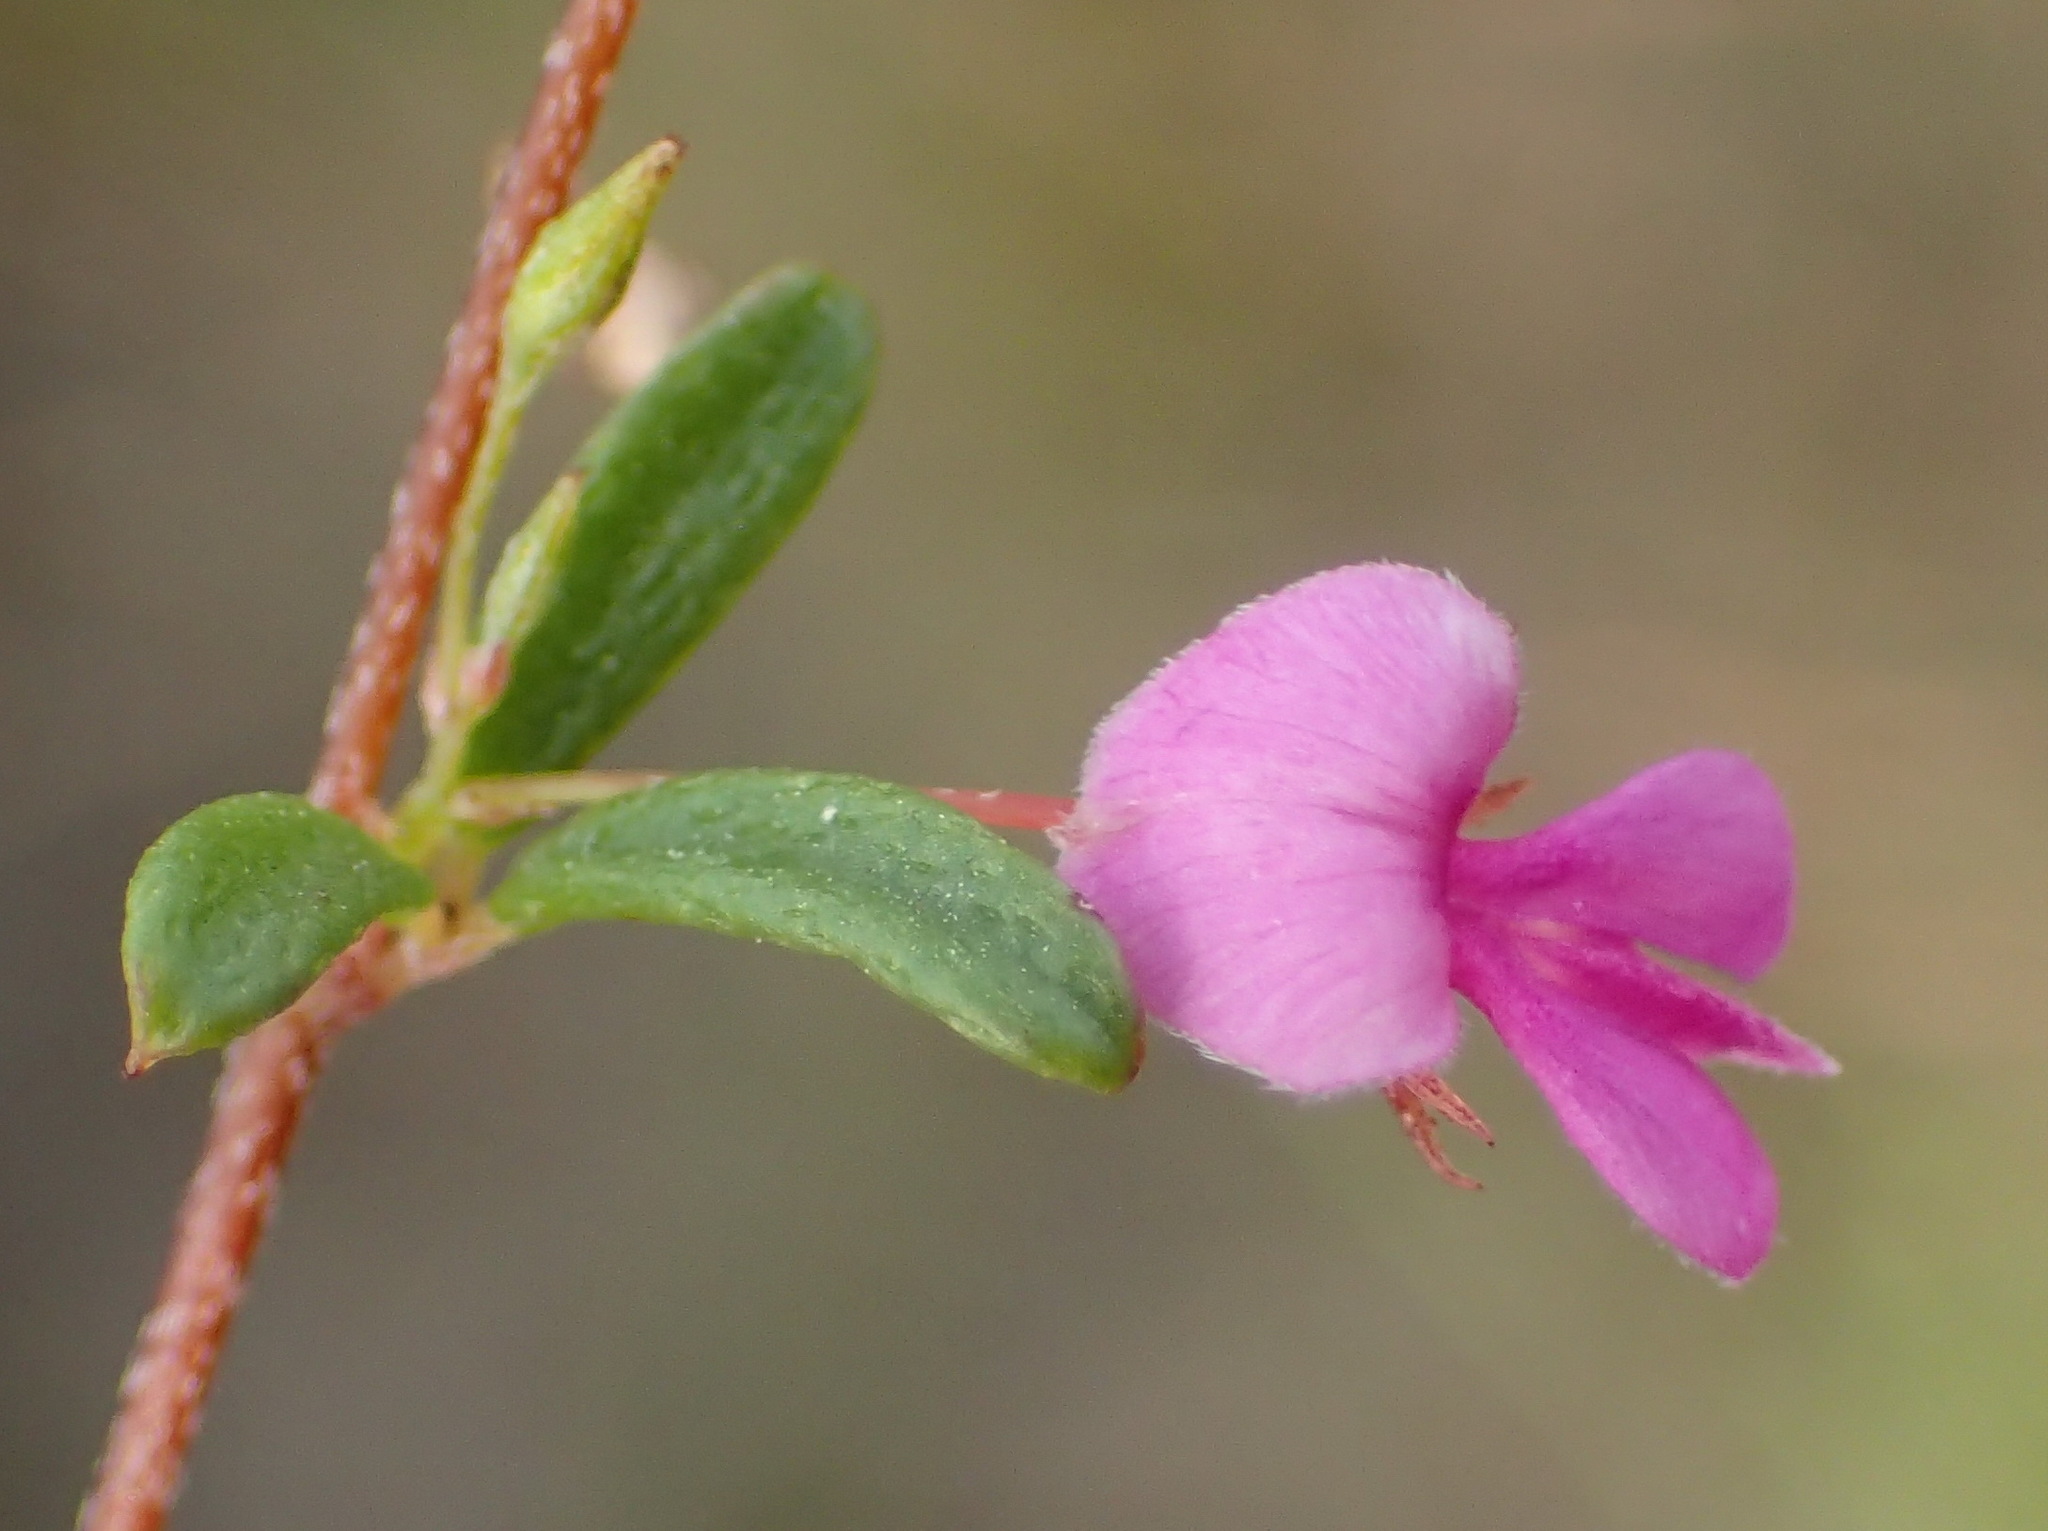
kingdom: Plantae
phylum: Tracheophyta
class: Magnoliopsida
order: Fabales
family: Fabaceae
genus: Indigofera
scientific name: Indigofera setosa
